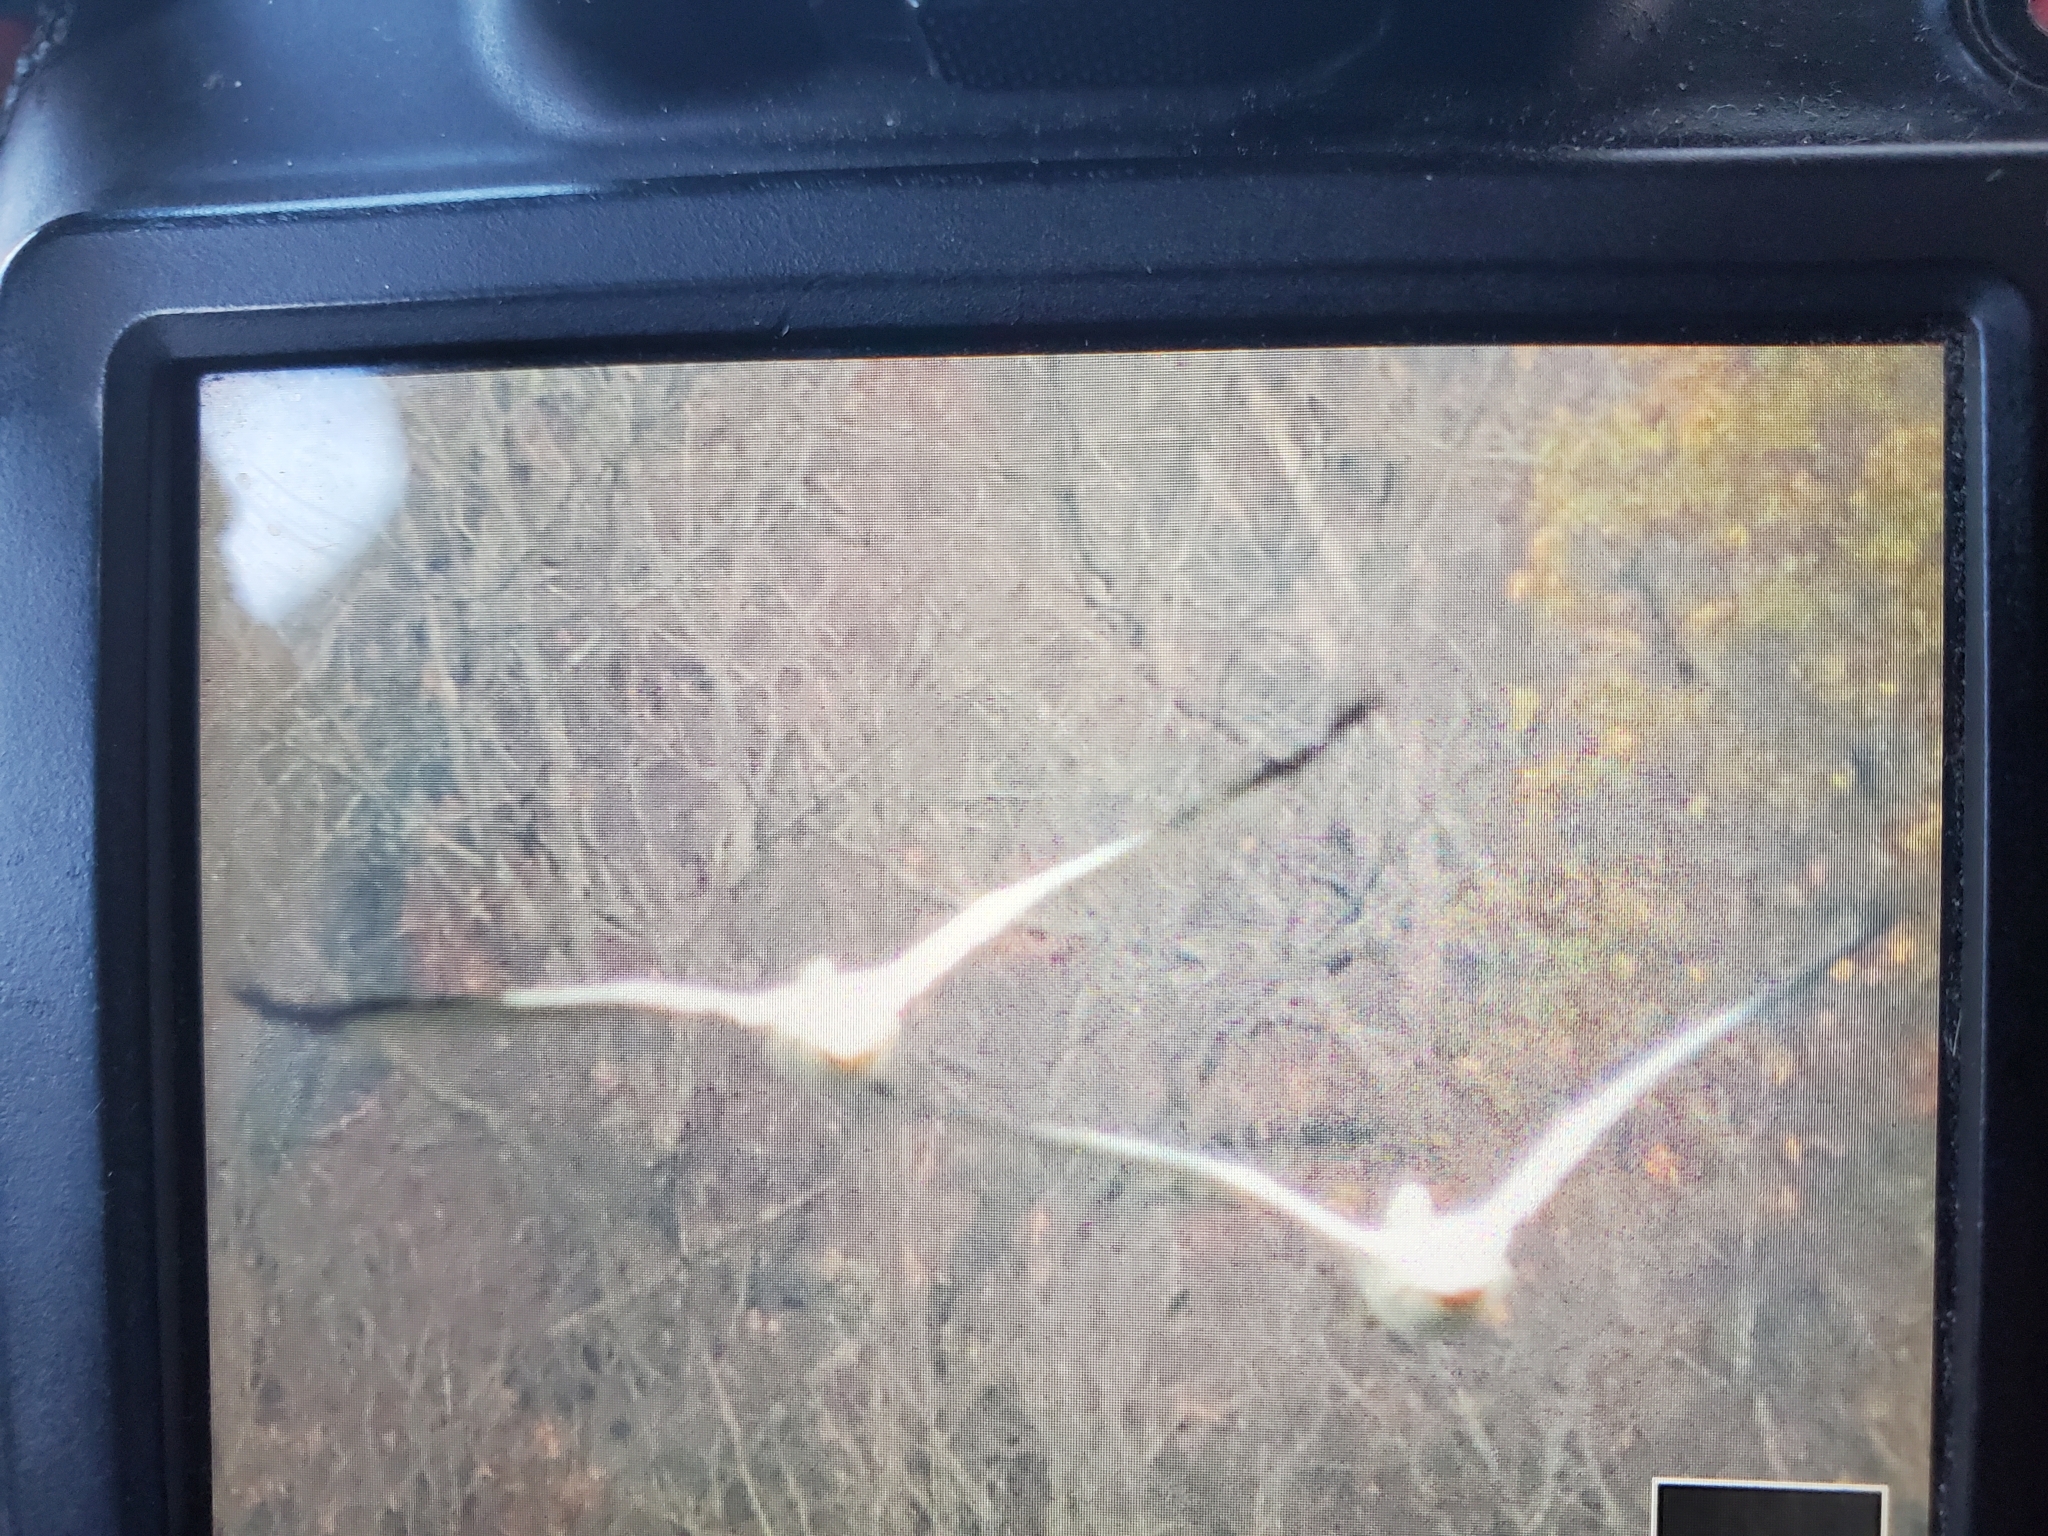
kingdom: Animalia
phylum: Chordata
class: Aves
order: Pelecaniformes
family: Pelecanidae
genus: Pelecanus
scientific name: Pelecanus erythrorhynchos
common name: American white pelican
